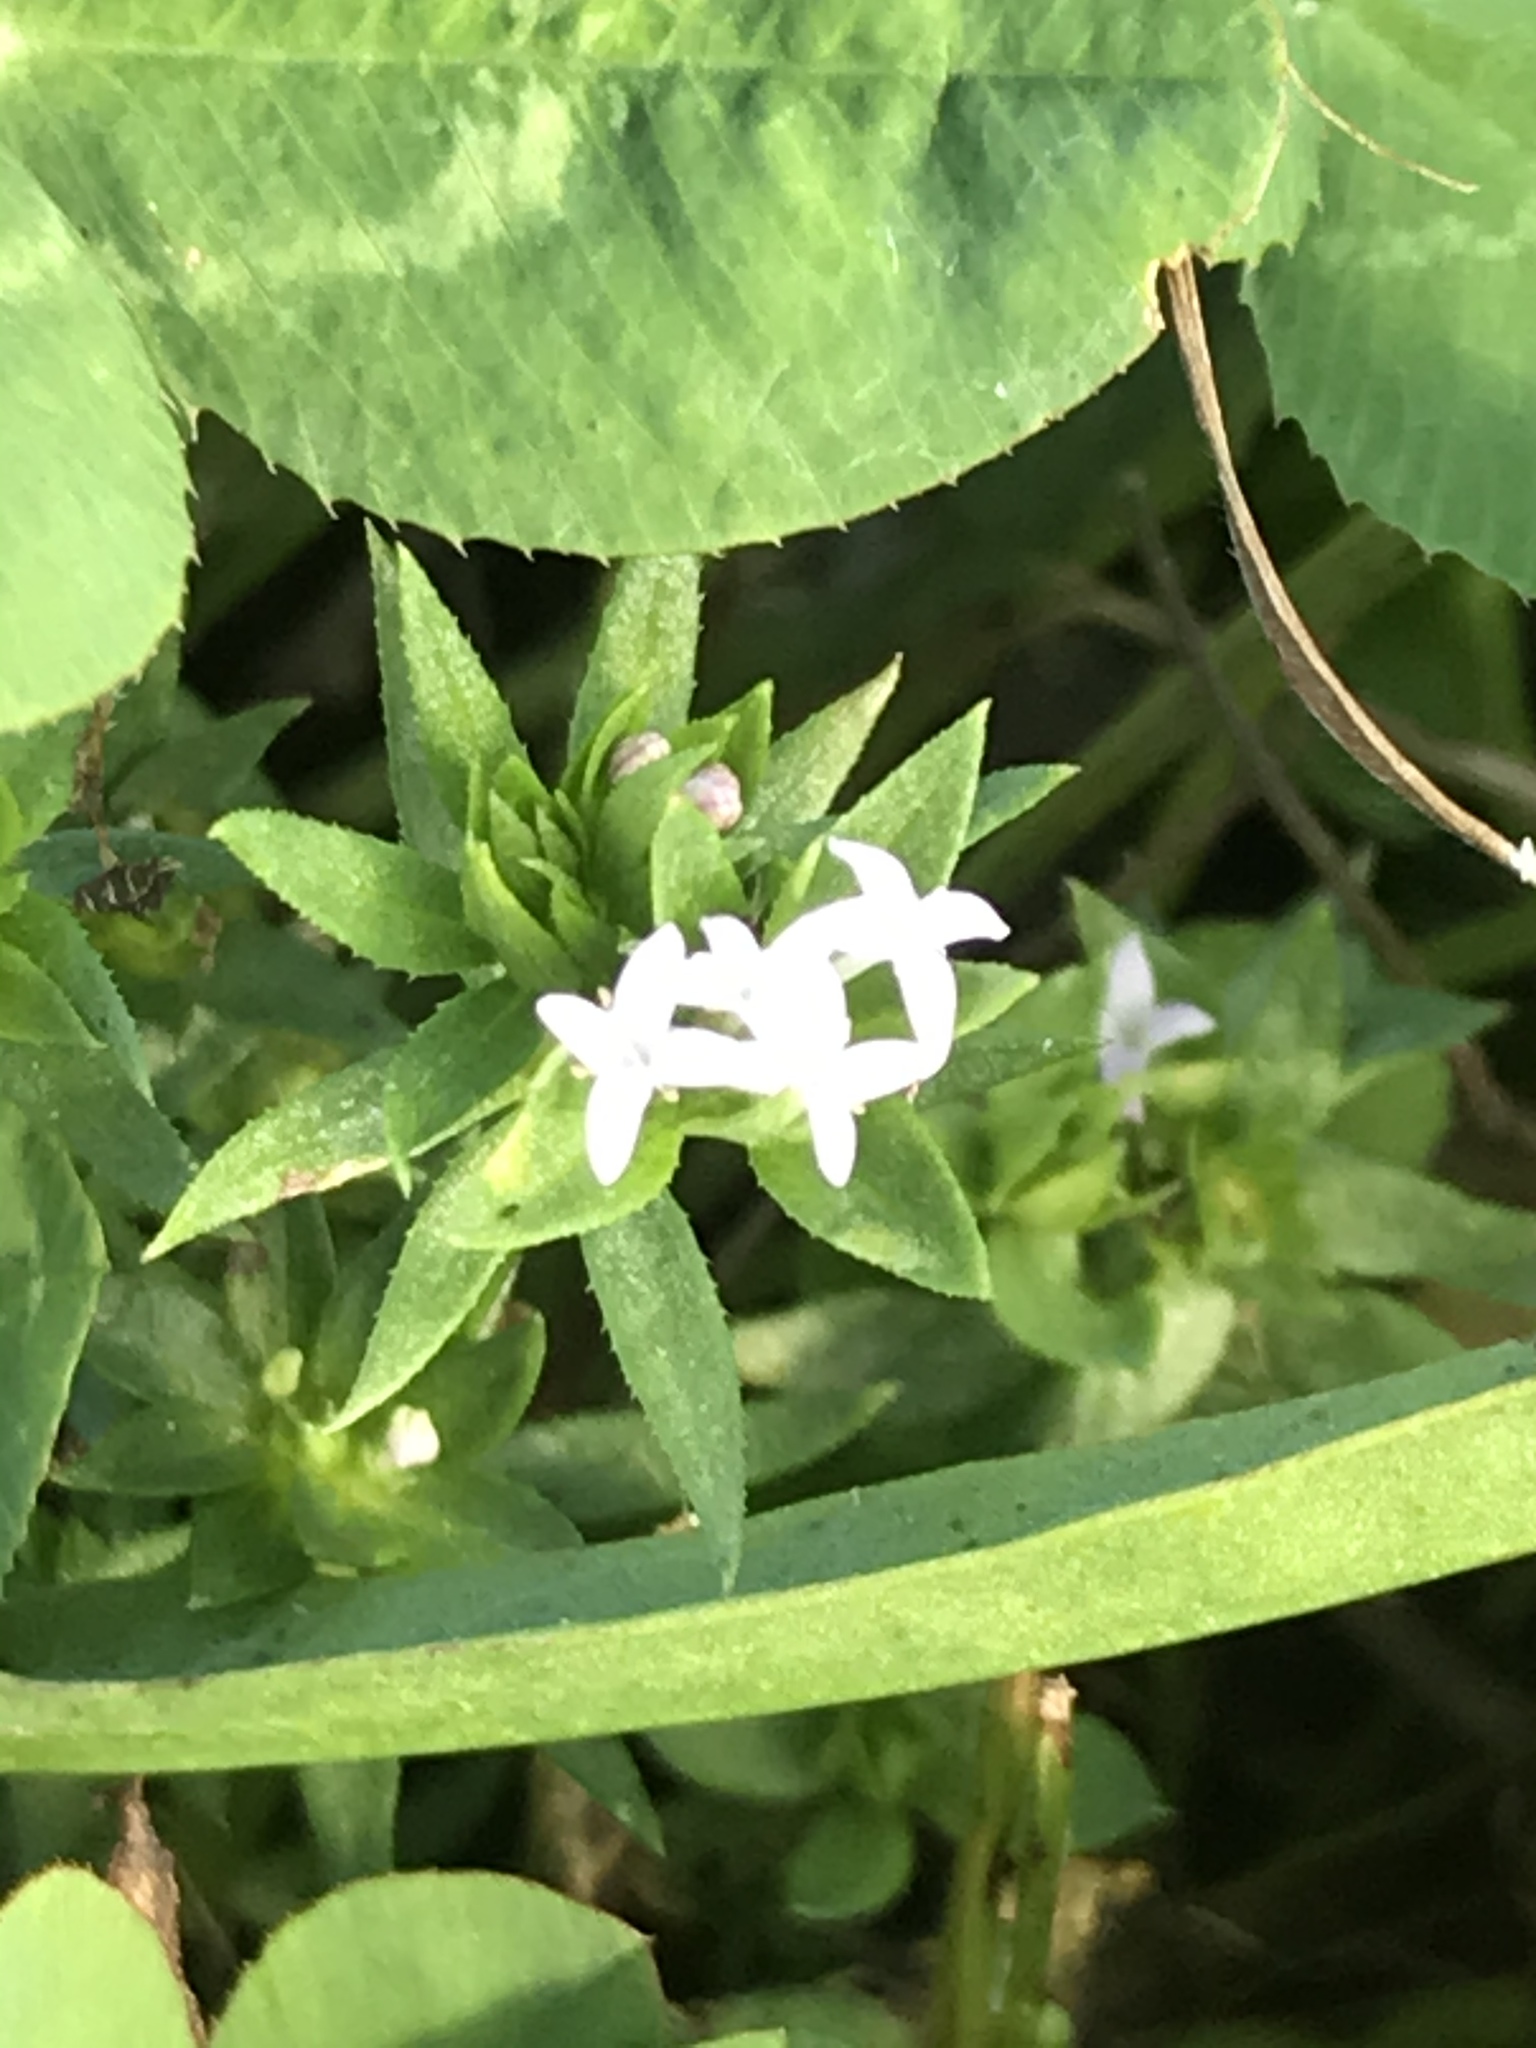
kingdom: Plantae
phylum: Tracheophyta
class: Magnoliopsida
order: Gentianales
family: Rubiaceae
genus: Sherardia
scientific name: Sherardia arvensis
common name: Field madder
